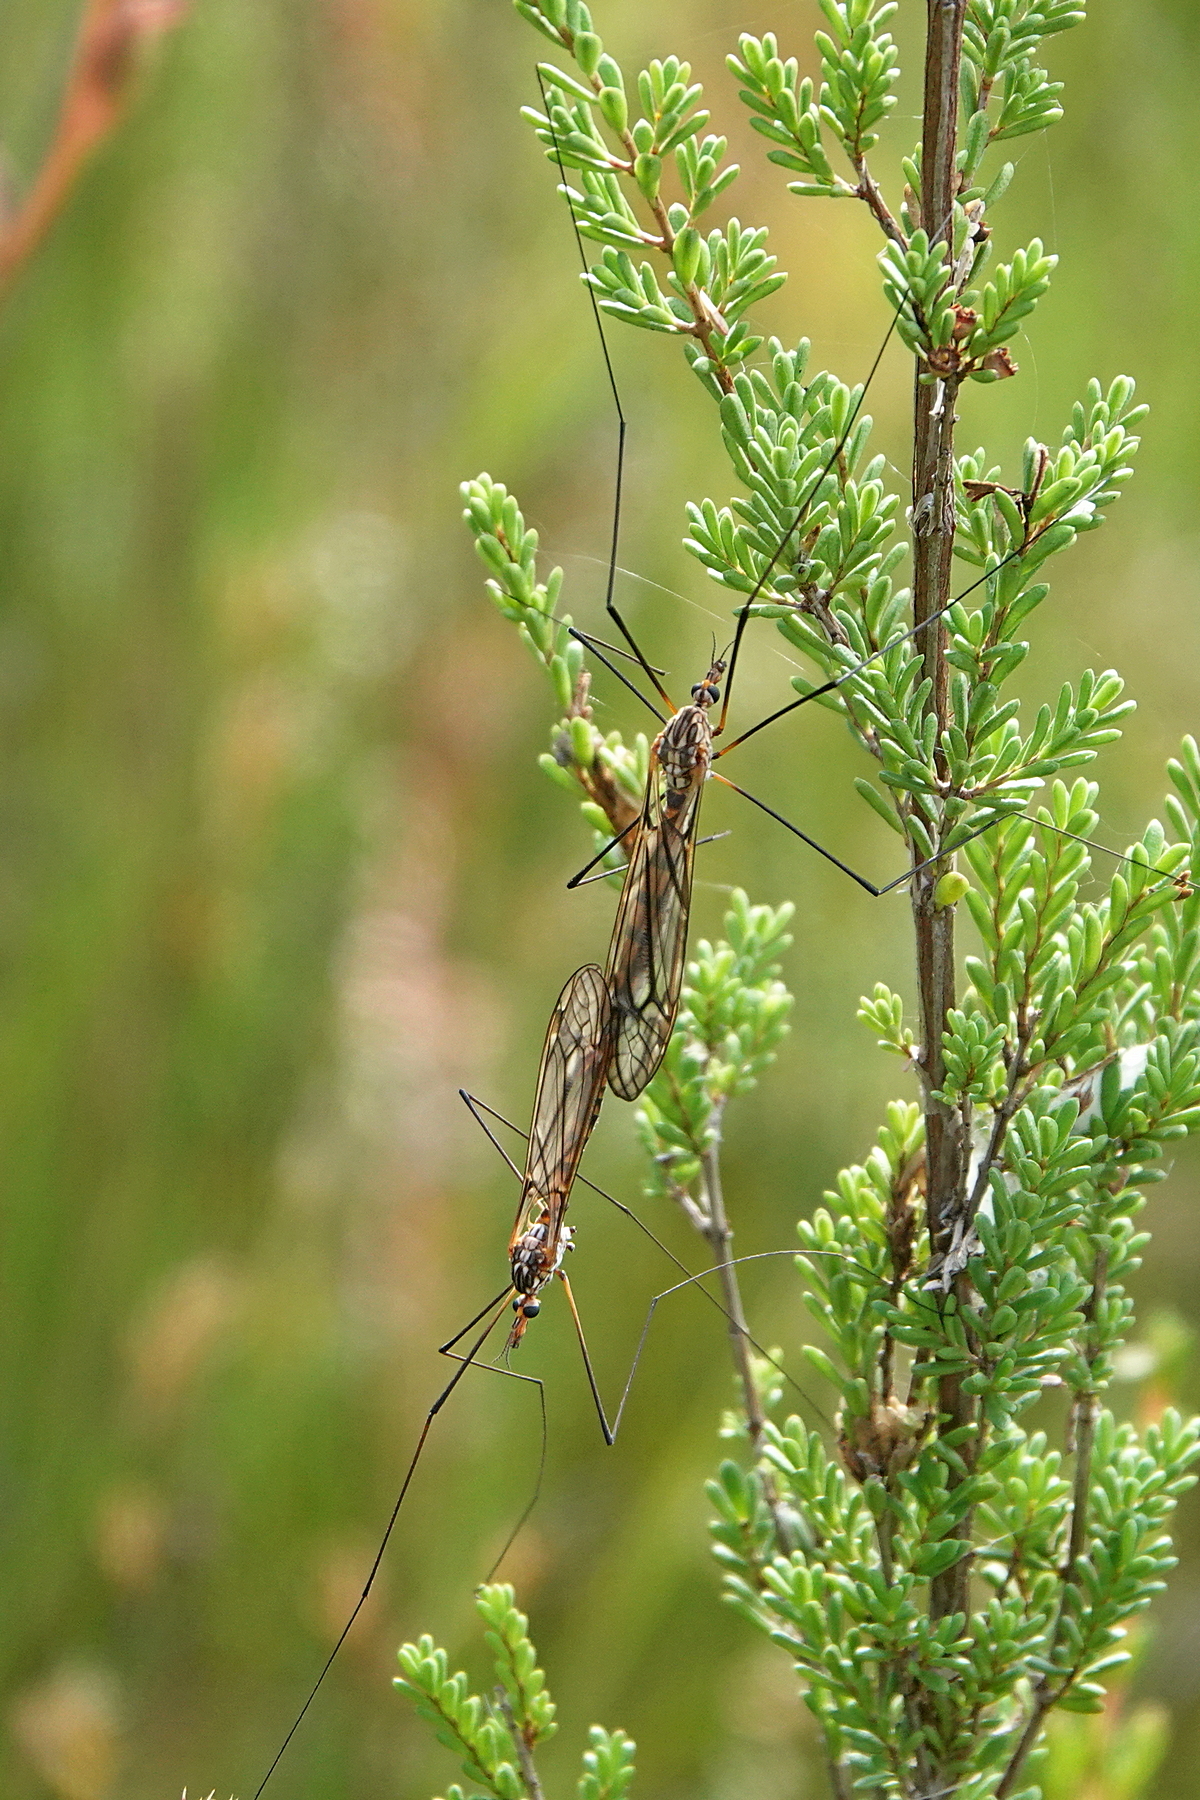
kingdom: Animalia
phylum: Arthropoda
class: Insecta
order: Diptera
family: Tipulidae
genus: Ischnotoma
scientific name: Ischnotoma par
